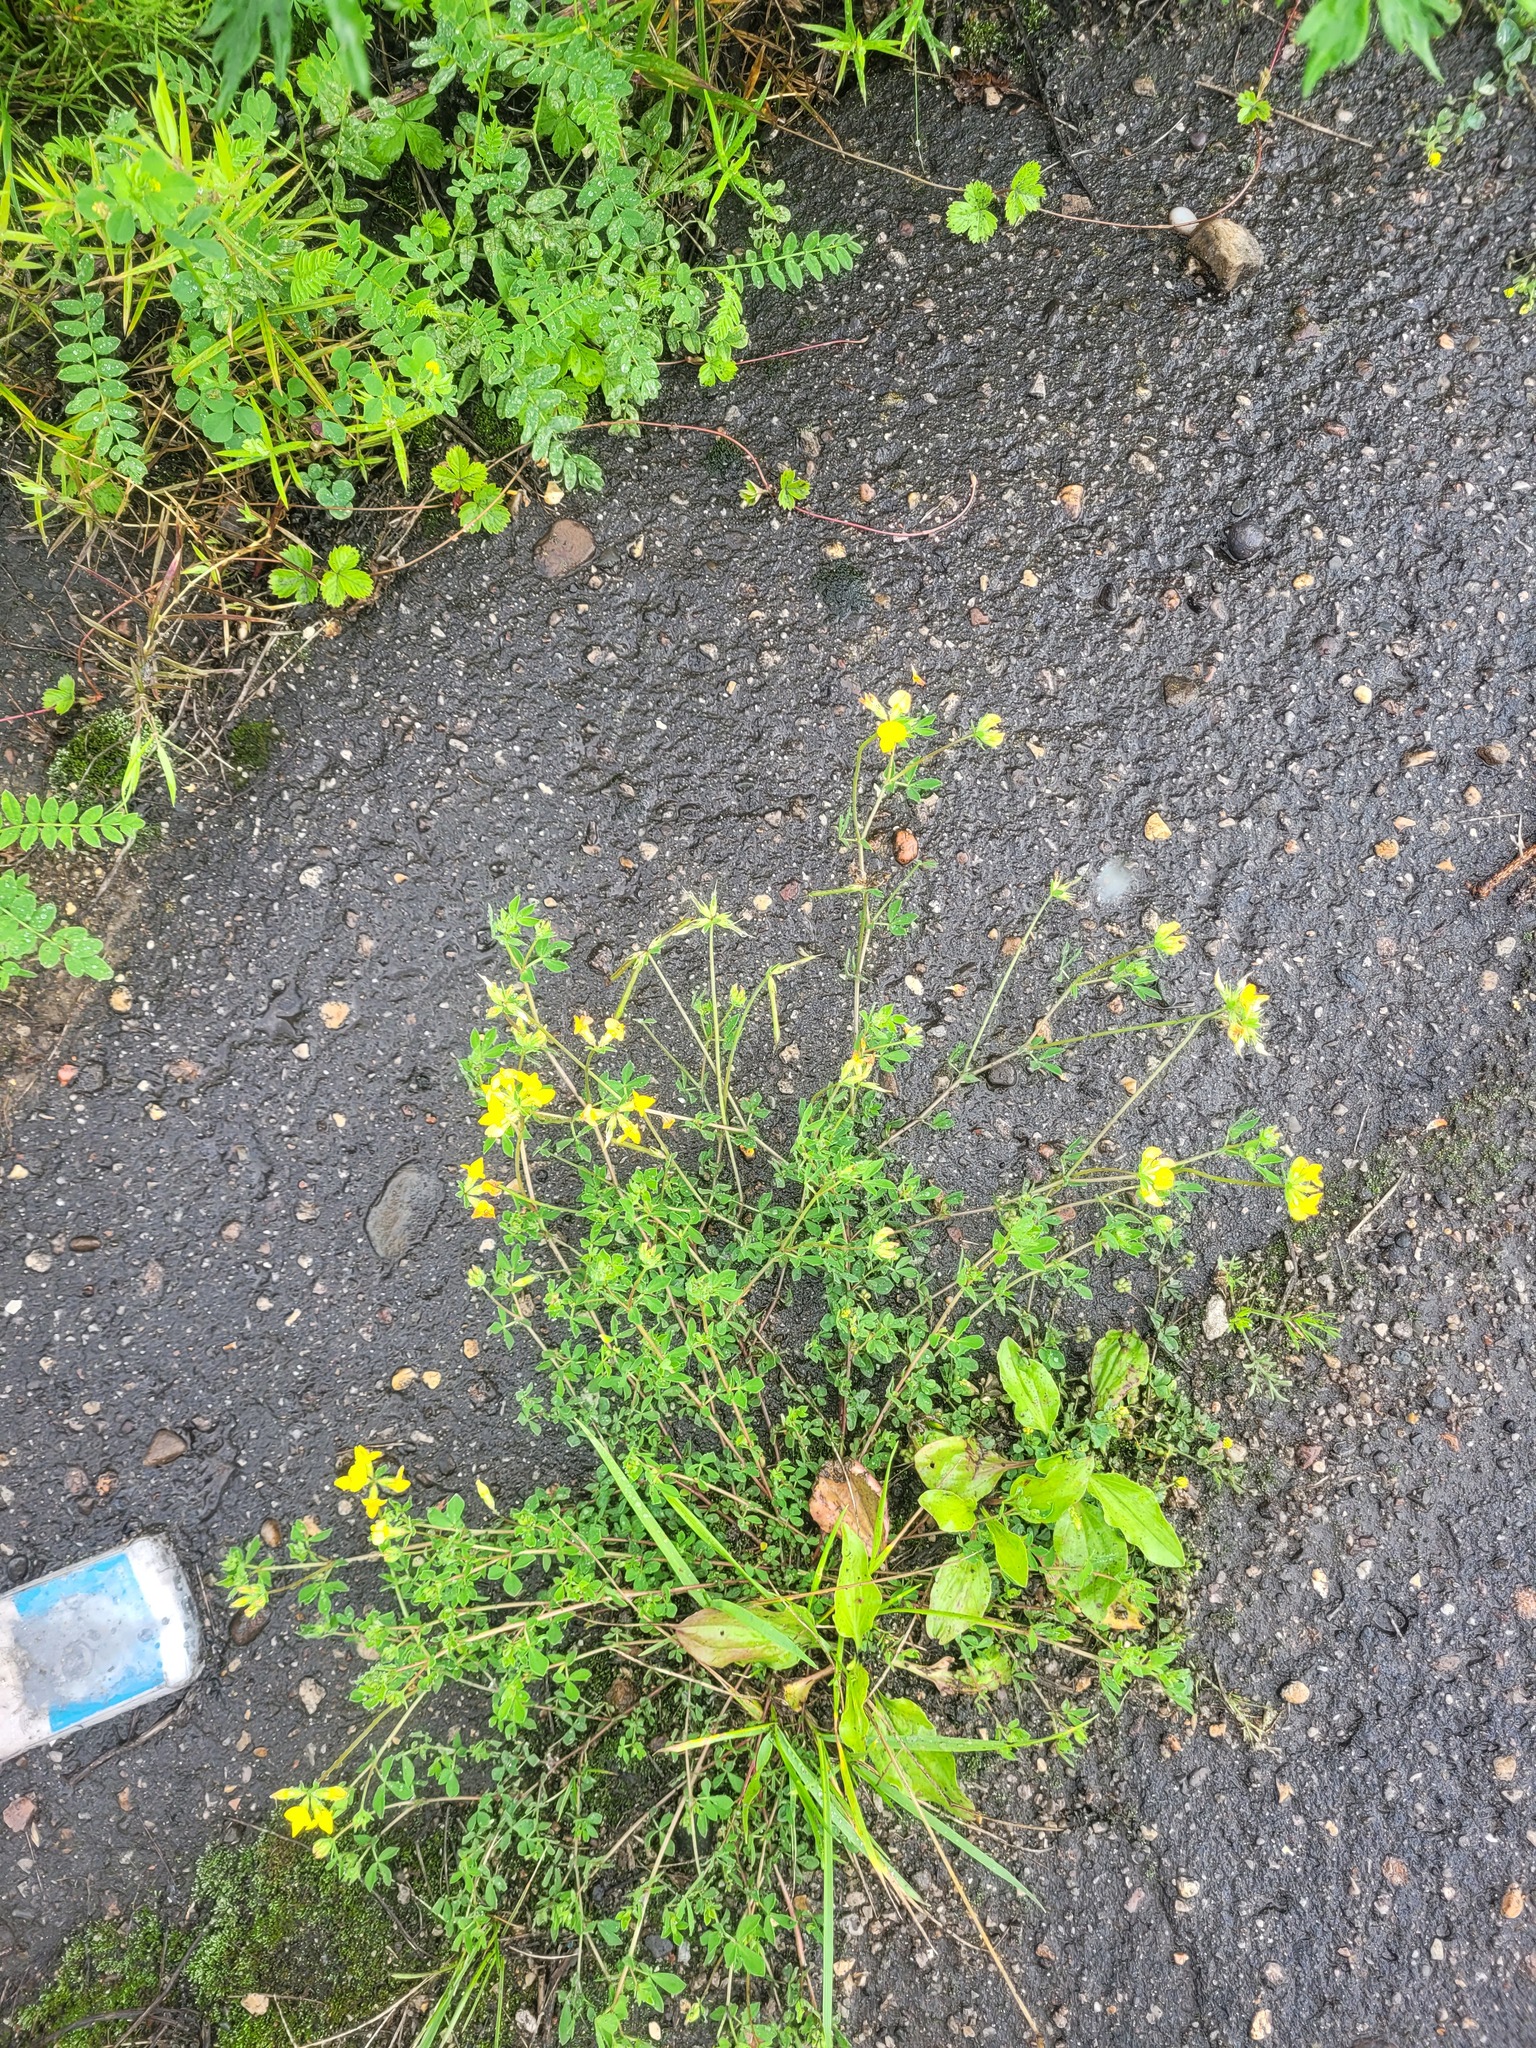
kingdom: Plantae
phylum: Tracheophyta
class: Magnoliopsida
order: Fabales
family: Fabaceae
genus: Lotus
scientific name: Lotus corniculatus
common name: Common bird's-foot-trefoil
